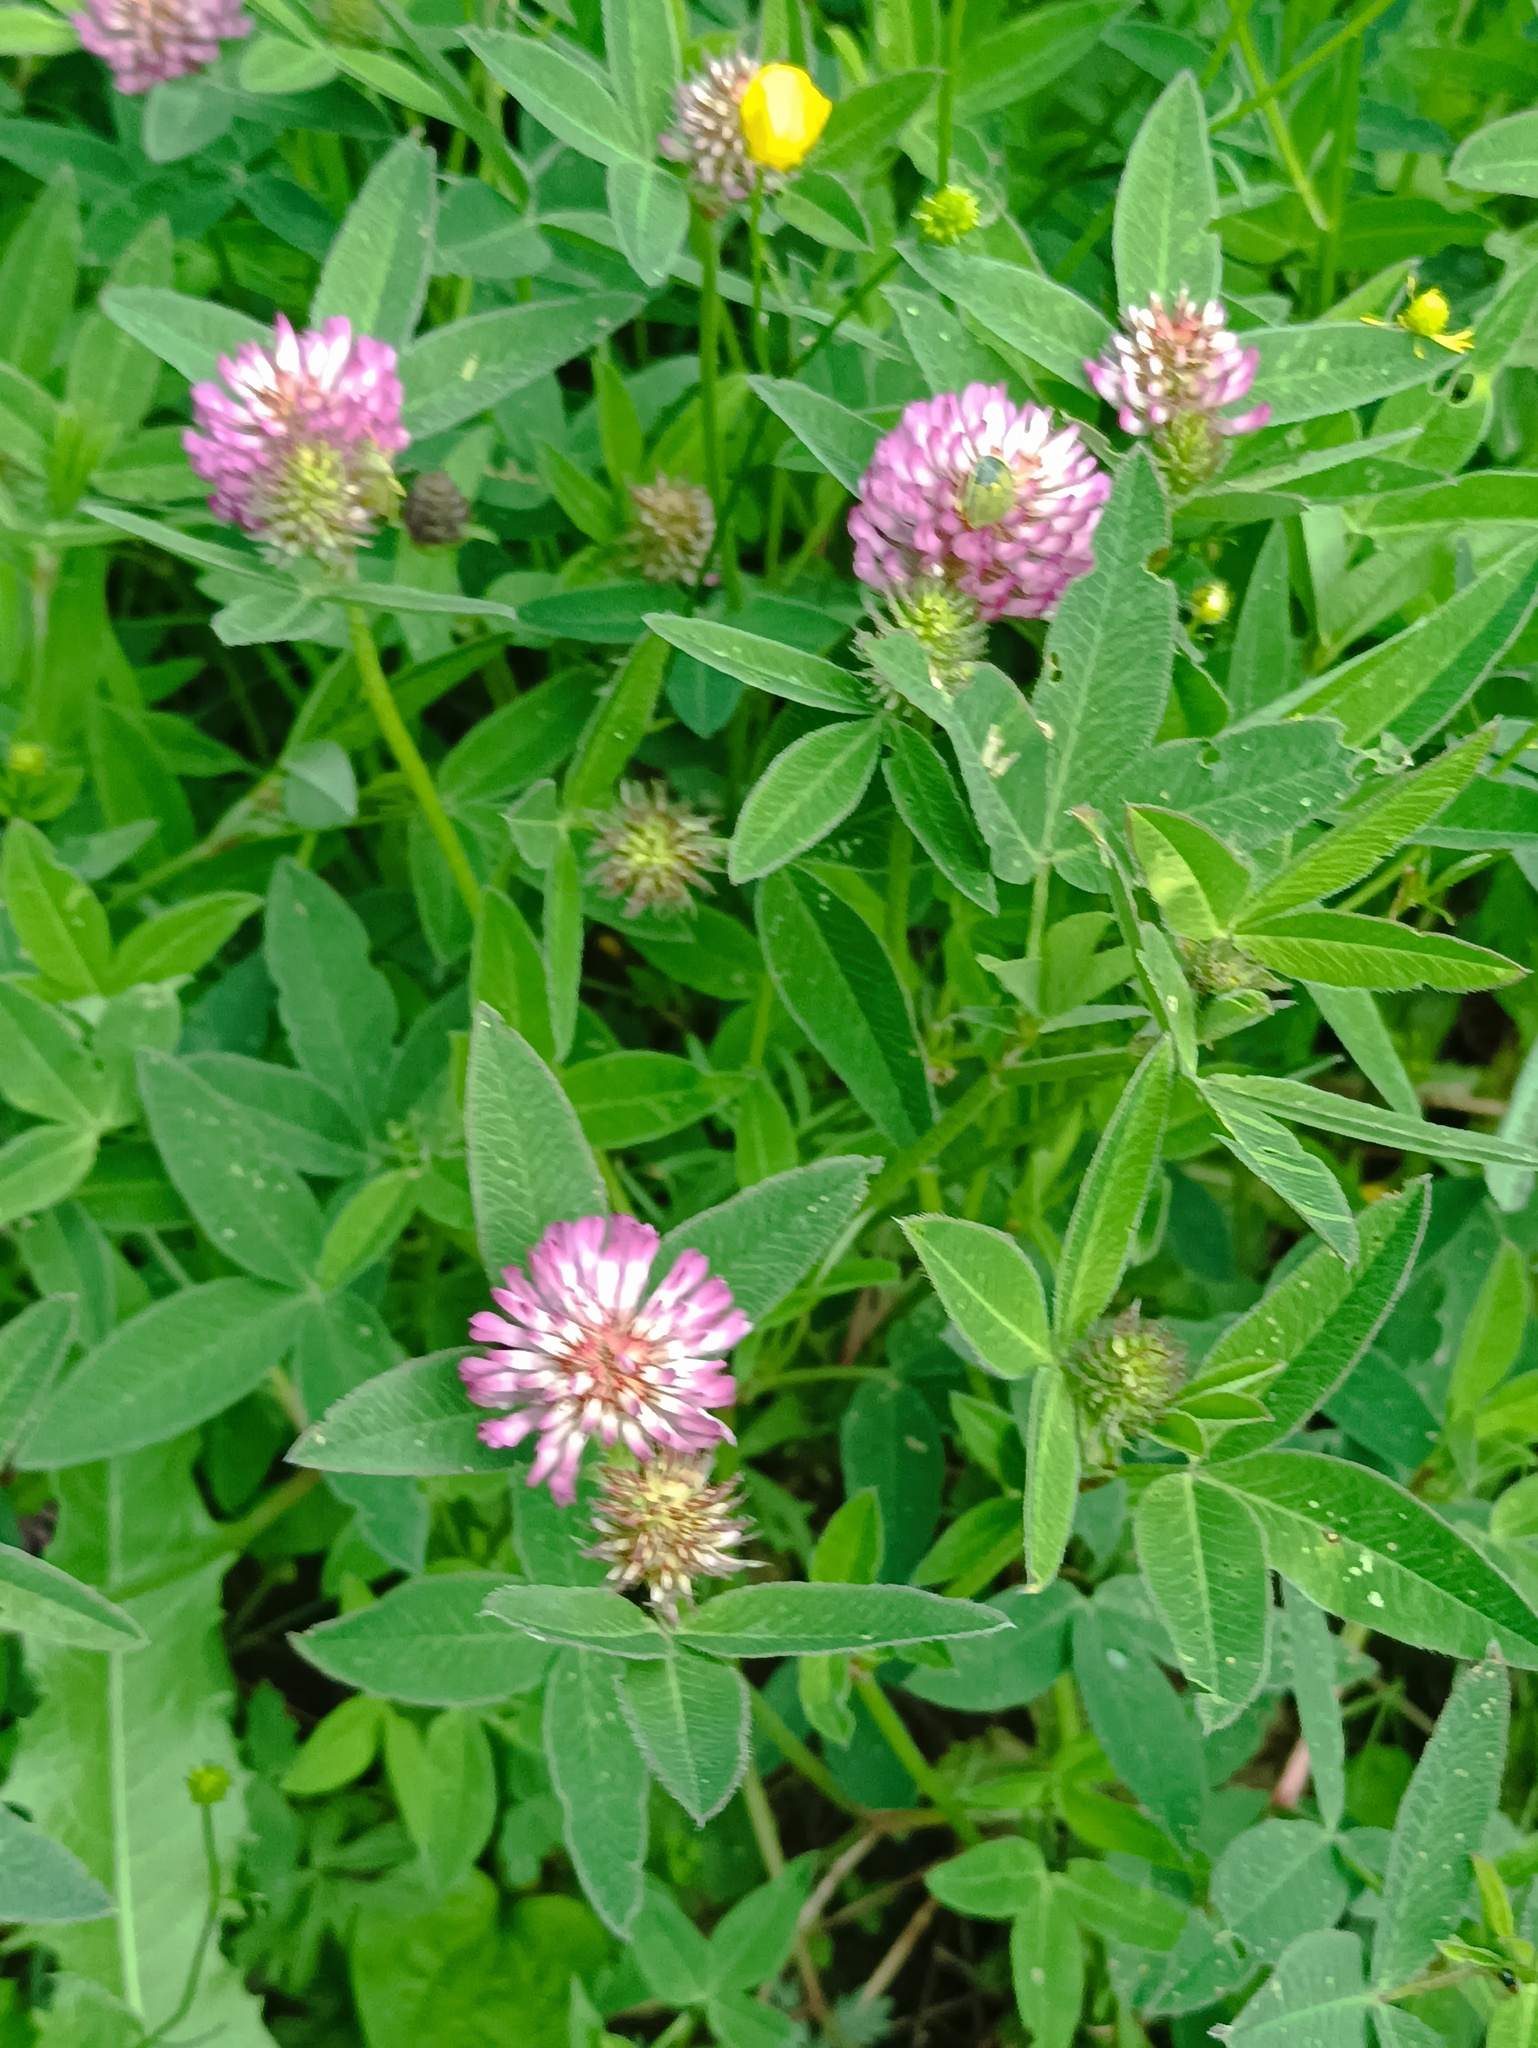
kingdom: Plantae
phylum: Tracheophyta
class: Magnoliopsida
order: Fabales
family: Fabaceae
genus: Trifolium
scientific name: Trifolium medium
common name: Zigzag clover
